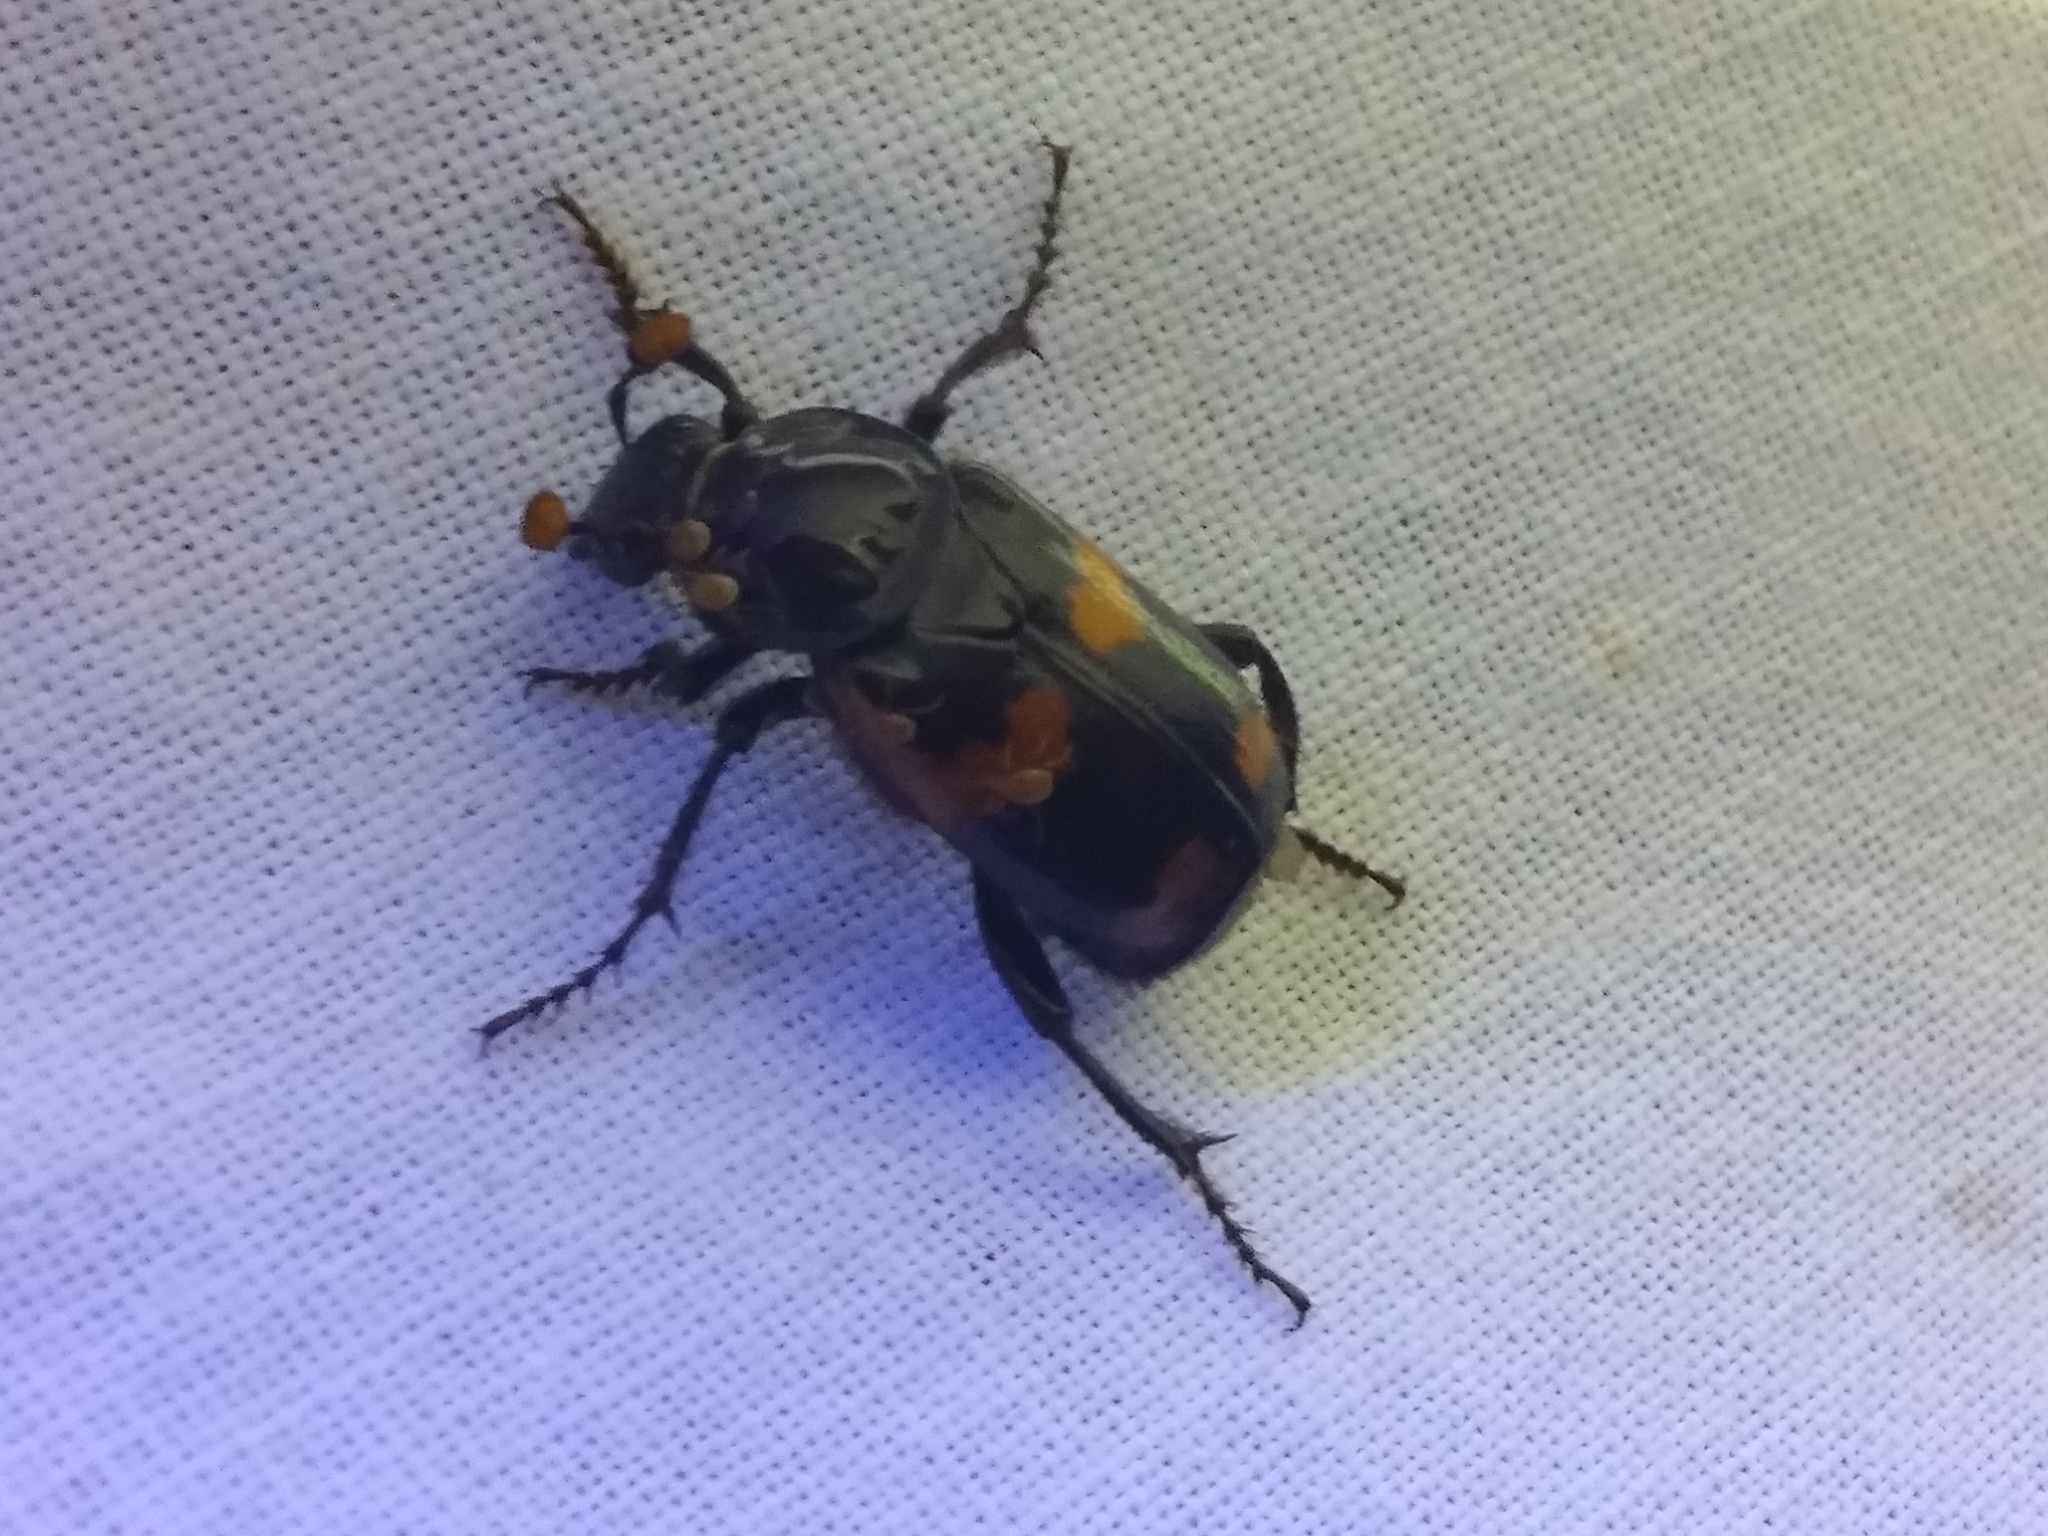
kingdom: Animalia
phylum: Arthropoda
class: Insecta
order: Coleoptera
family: Staphylinidae
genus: Nicrophorus
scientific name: Nicrophorus sayi
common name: Say's burying beetle
